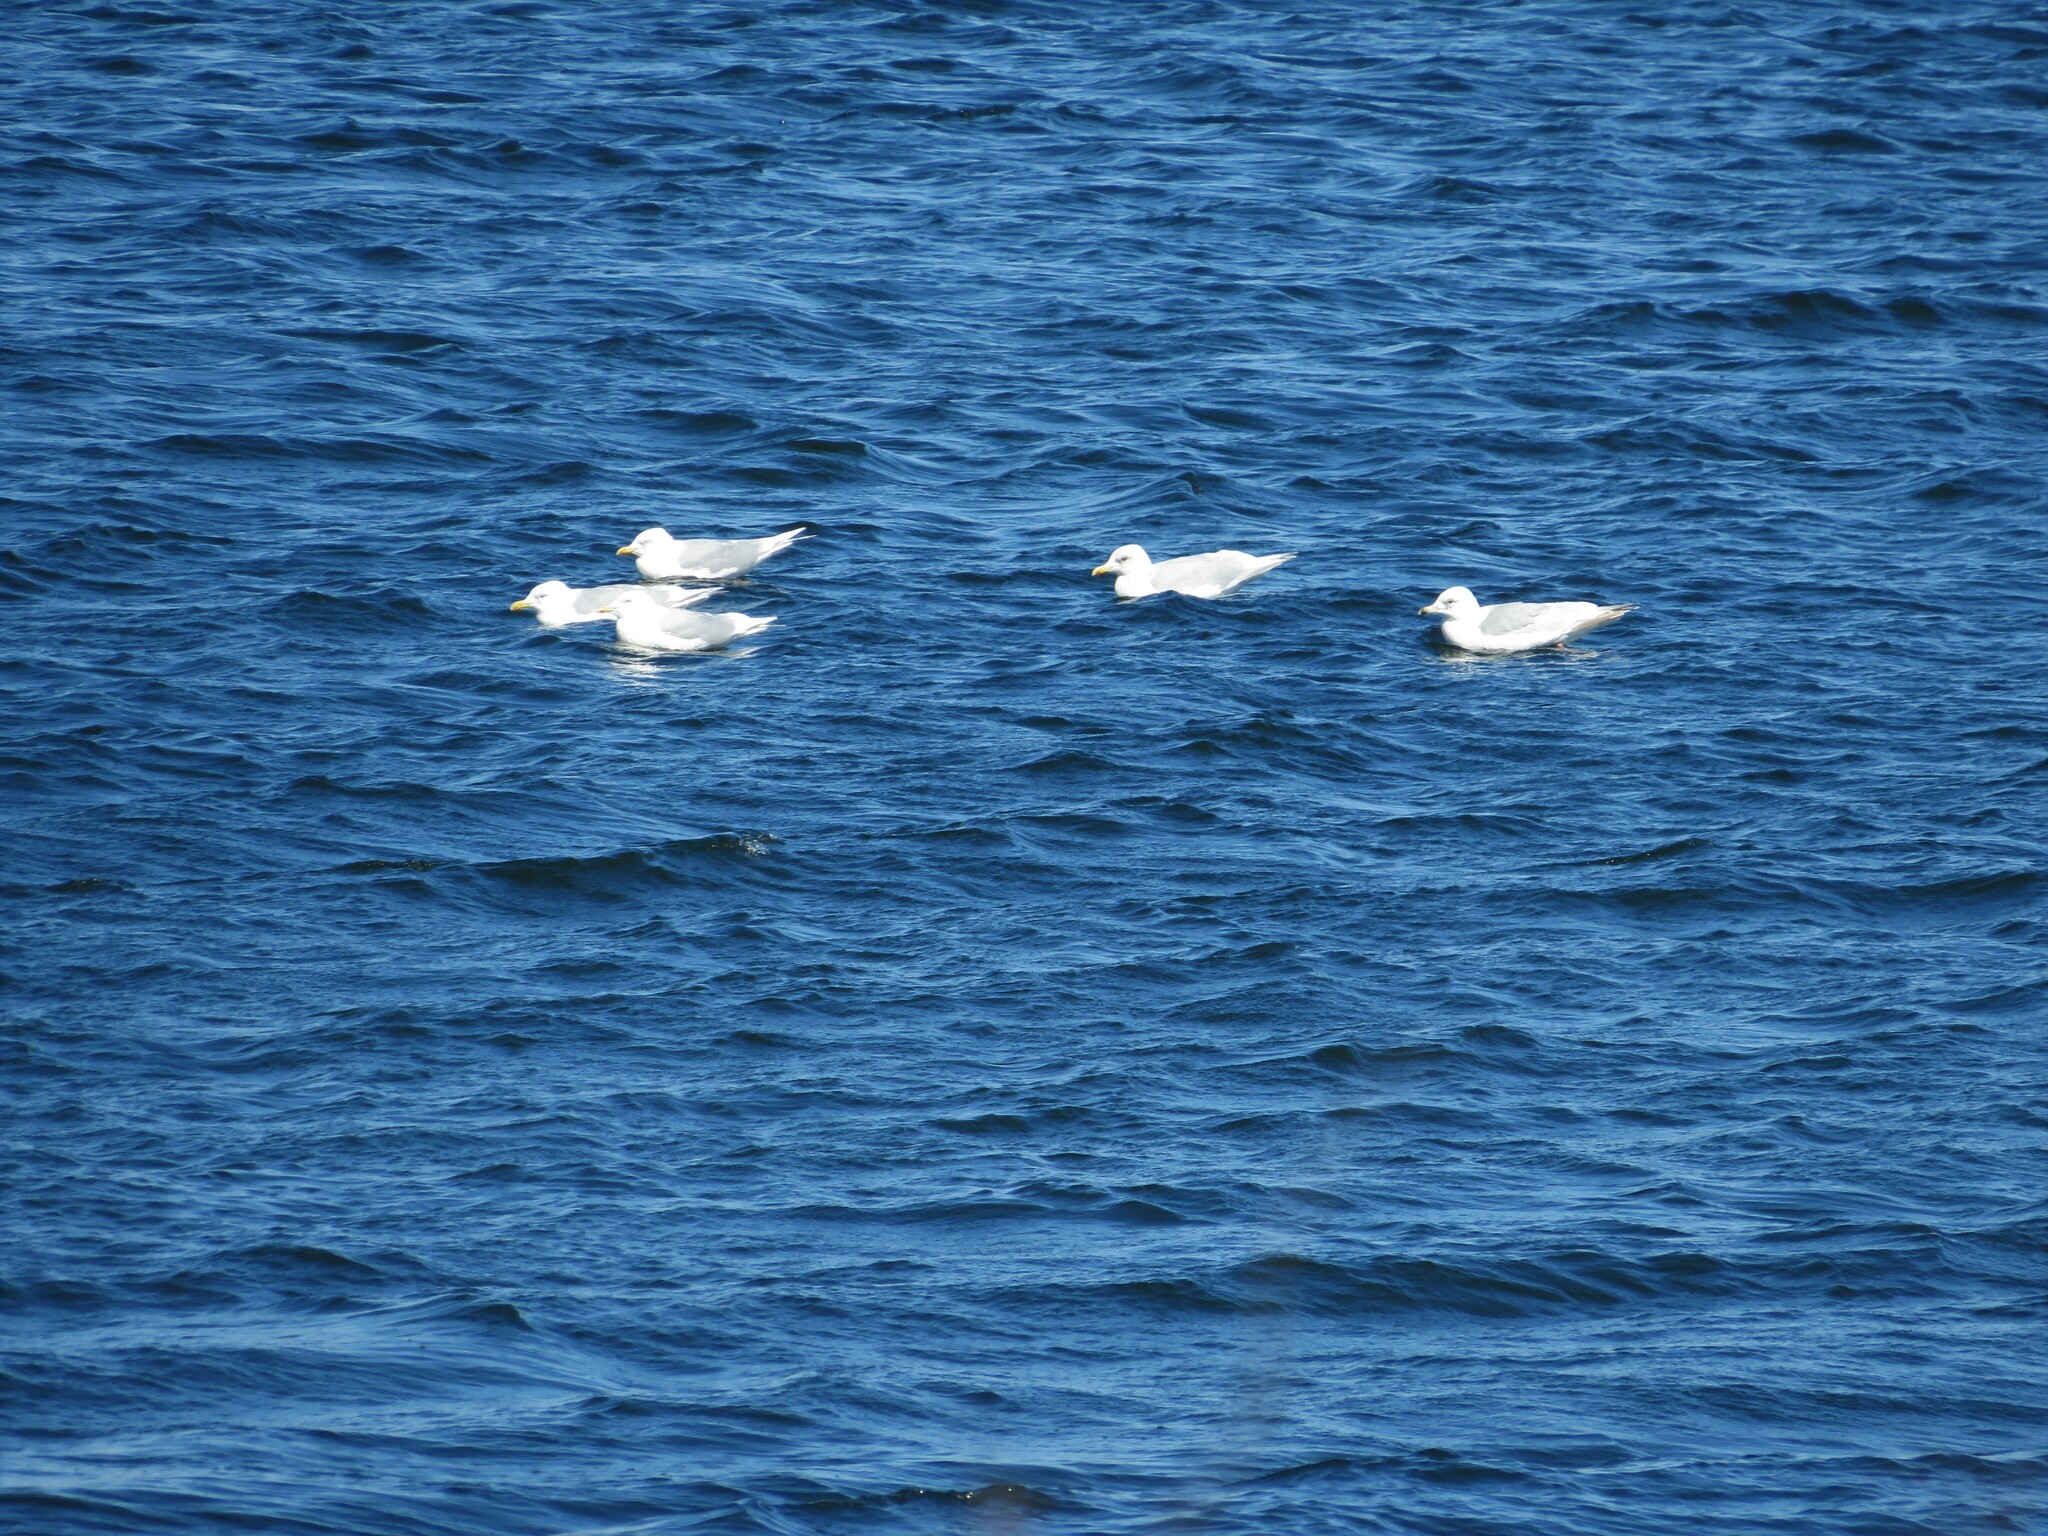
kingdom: Animalia
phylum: Chordata
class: Aves
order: Charadriiformes
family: Laridae
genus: Larus
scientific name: Larus glaucoides
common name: Iceland gull
